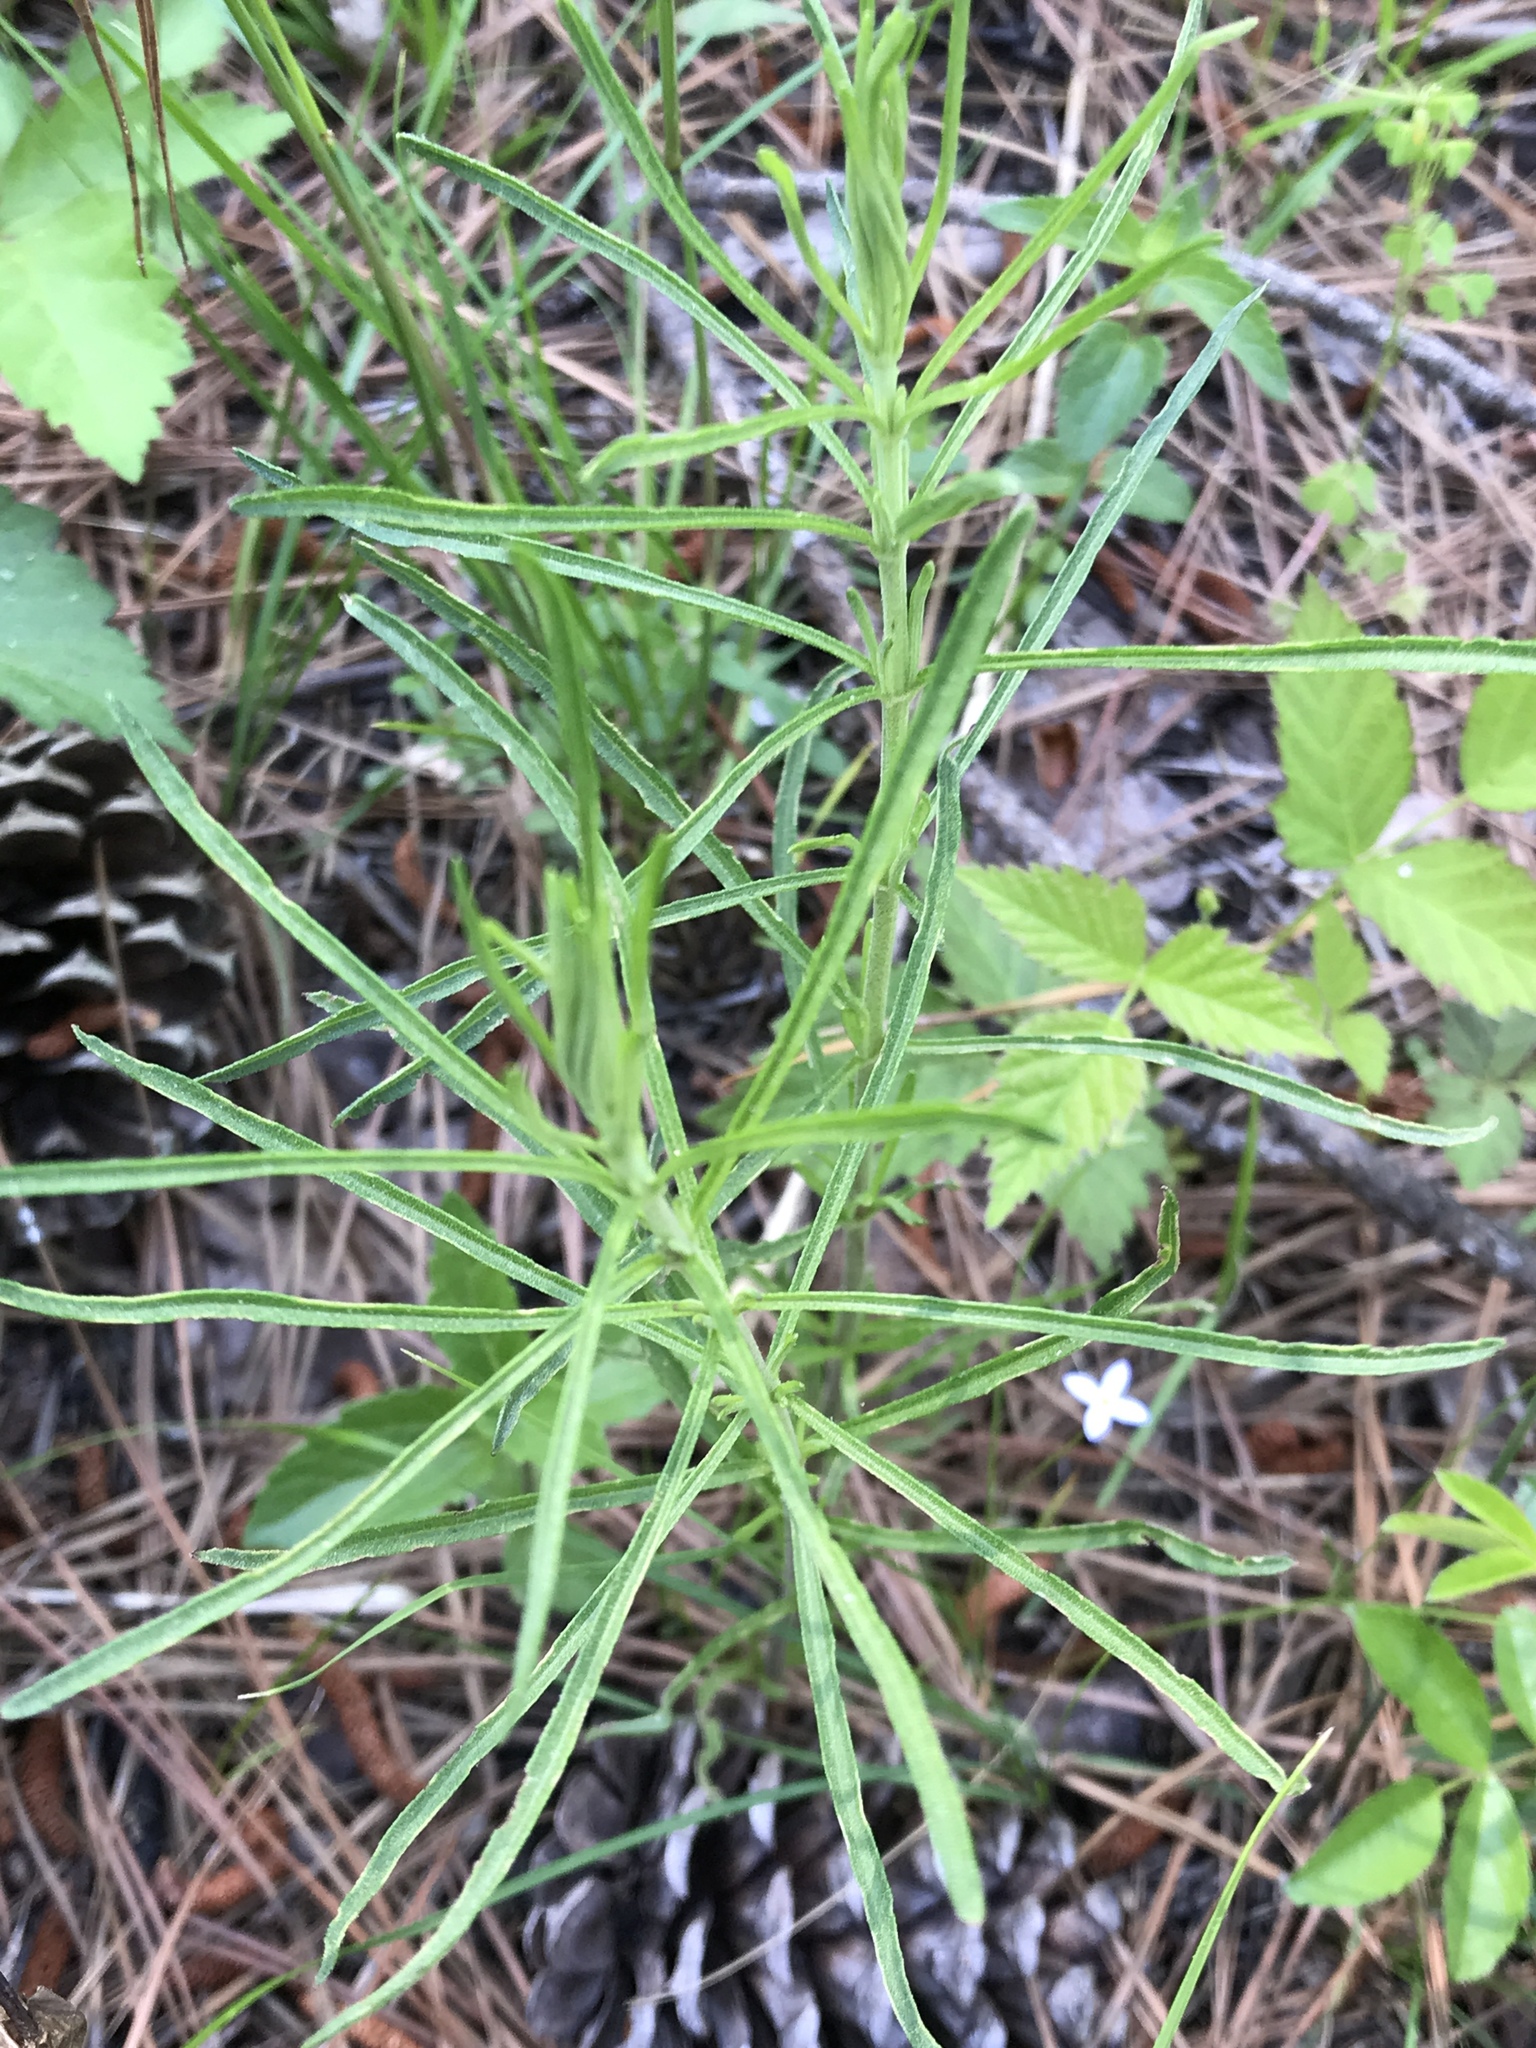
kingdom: Plantae
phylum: Tracheophyta
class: Magnoliopsida
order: Asterales
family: Asteraceae
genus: Eupatorium
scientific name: Eupatorium hyssopifolium
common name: Hyssop-leaf thoroughwort
